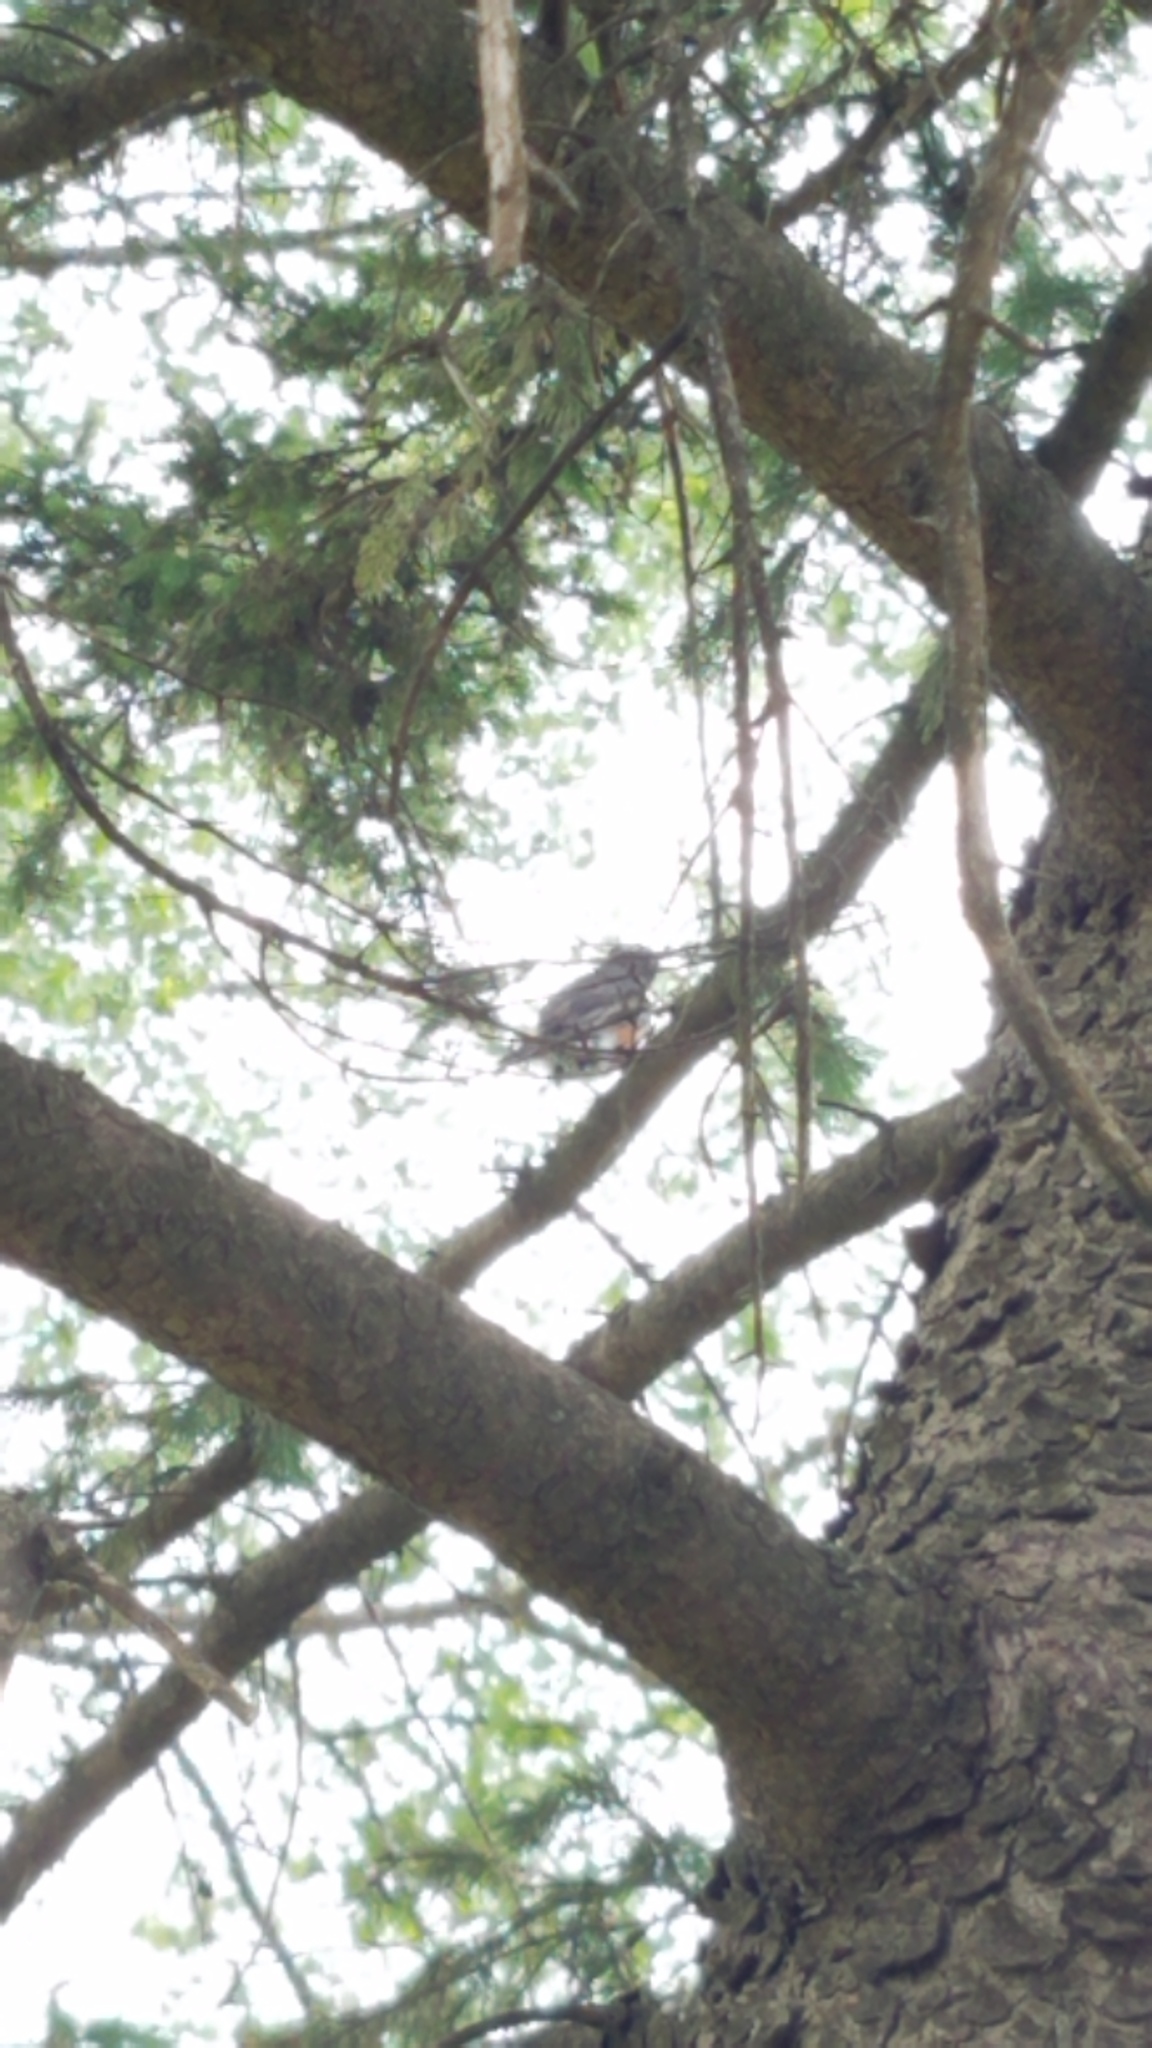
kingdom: Animalia
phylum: Chordata
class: Aves
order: Passeriformes
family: Turdidae
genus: Turdus
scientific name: Turdus migratorius
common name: American robin
